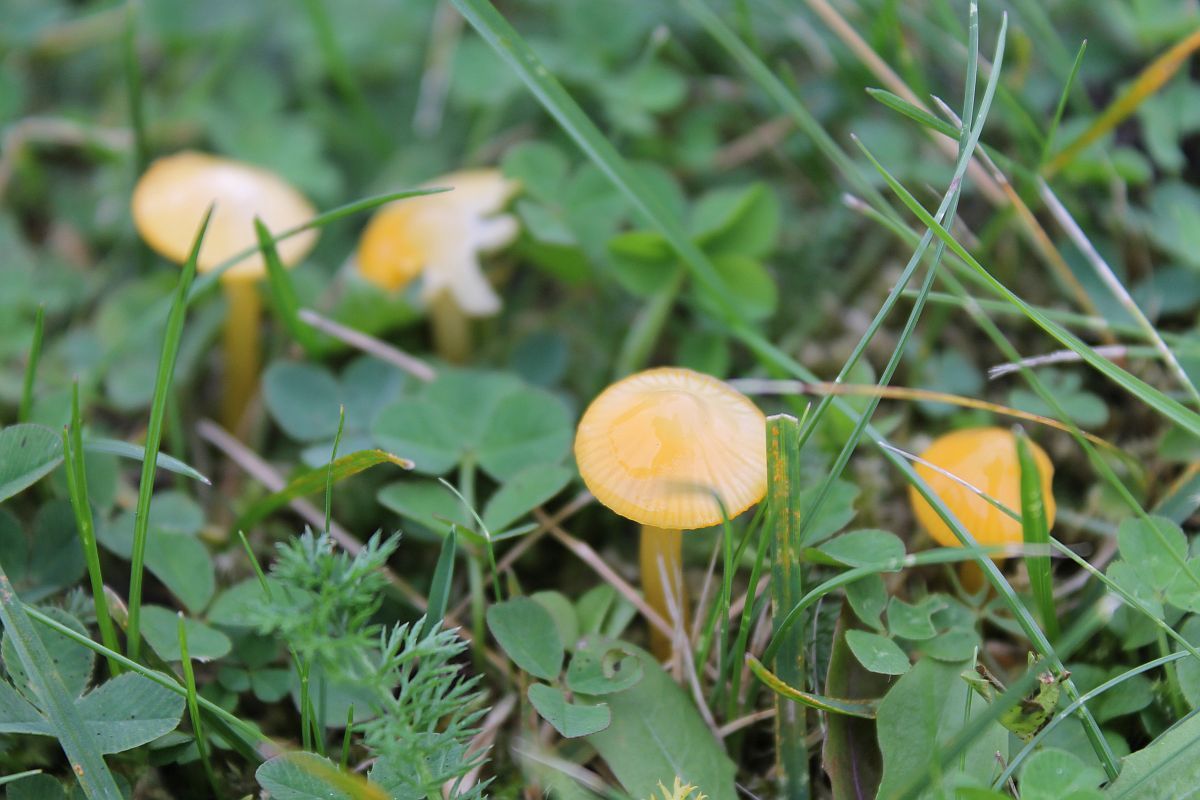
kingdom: Fungi
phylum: Basidiomycota
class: Agaricomycetes
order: Agaricales
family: Hygrophoraceae
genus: Gliophorus
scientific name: Gliophorus psittacinus
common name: Parrot wax-cap
